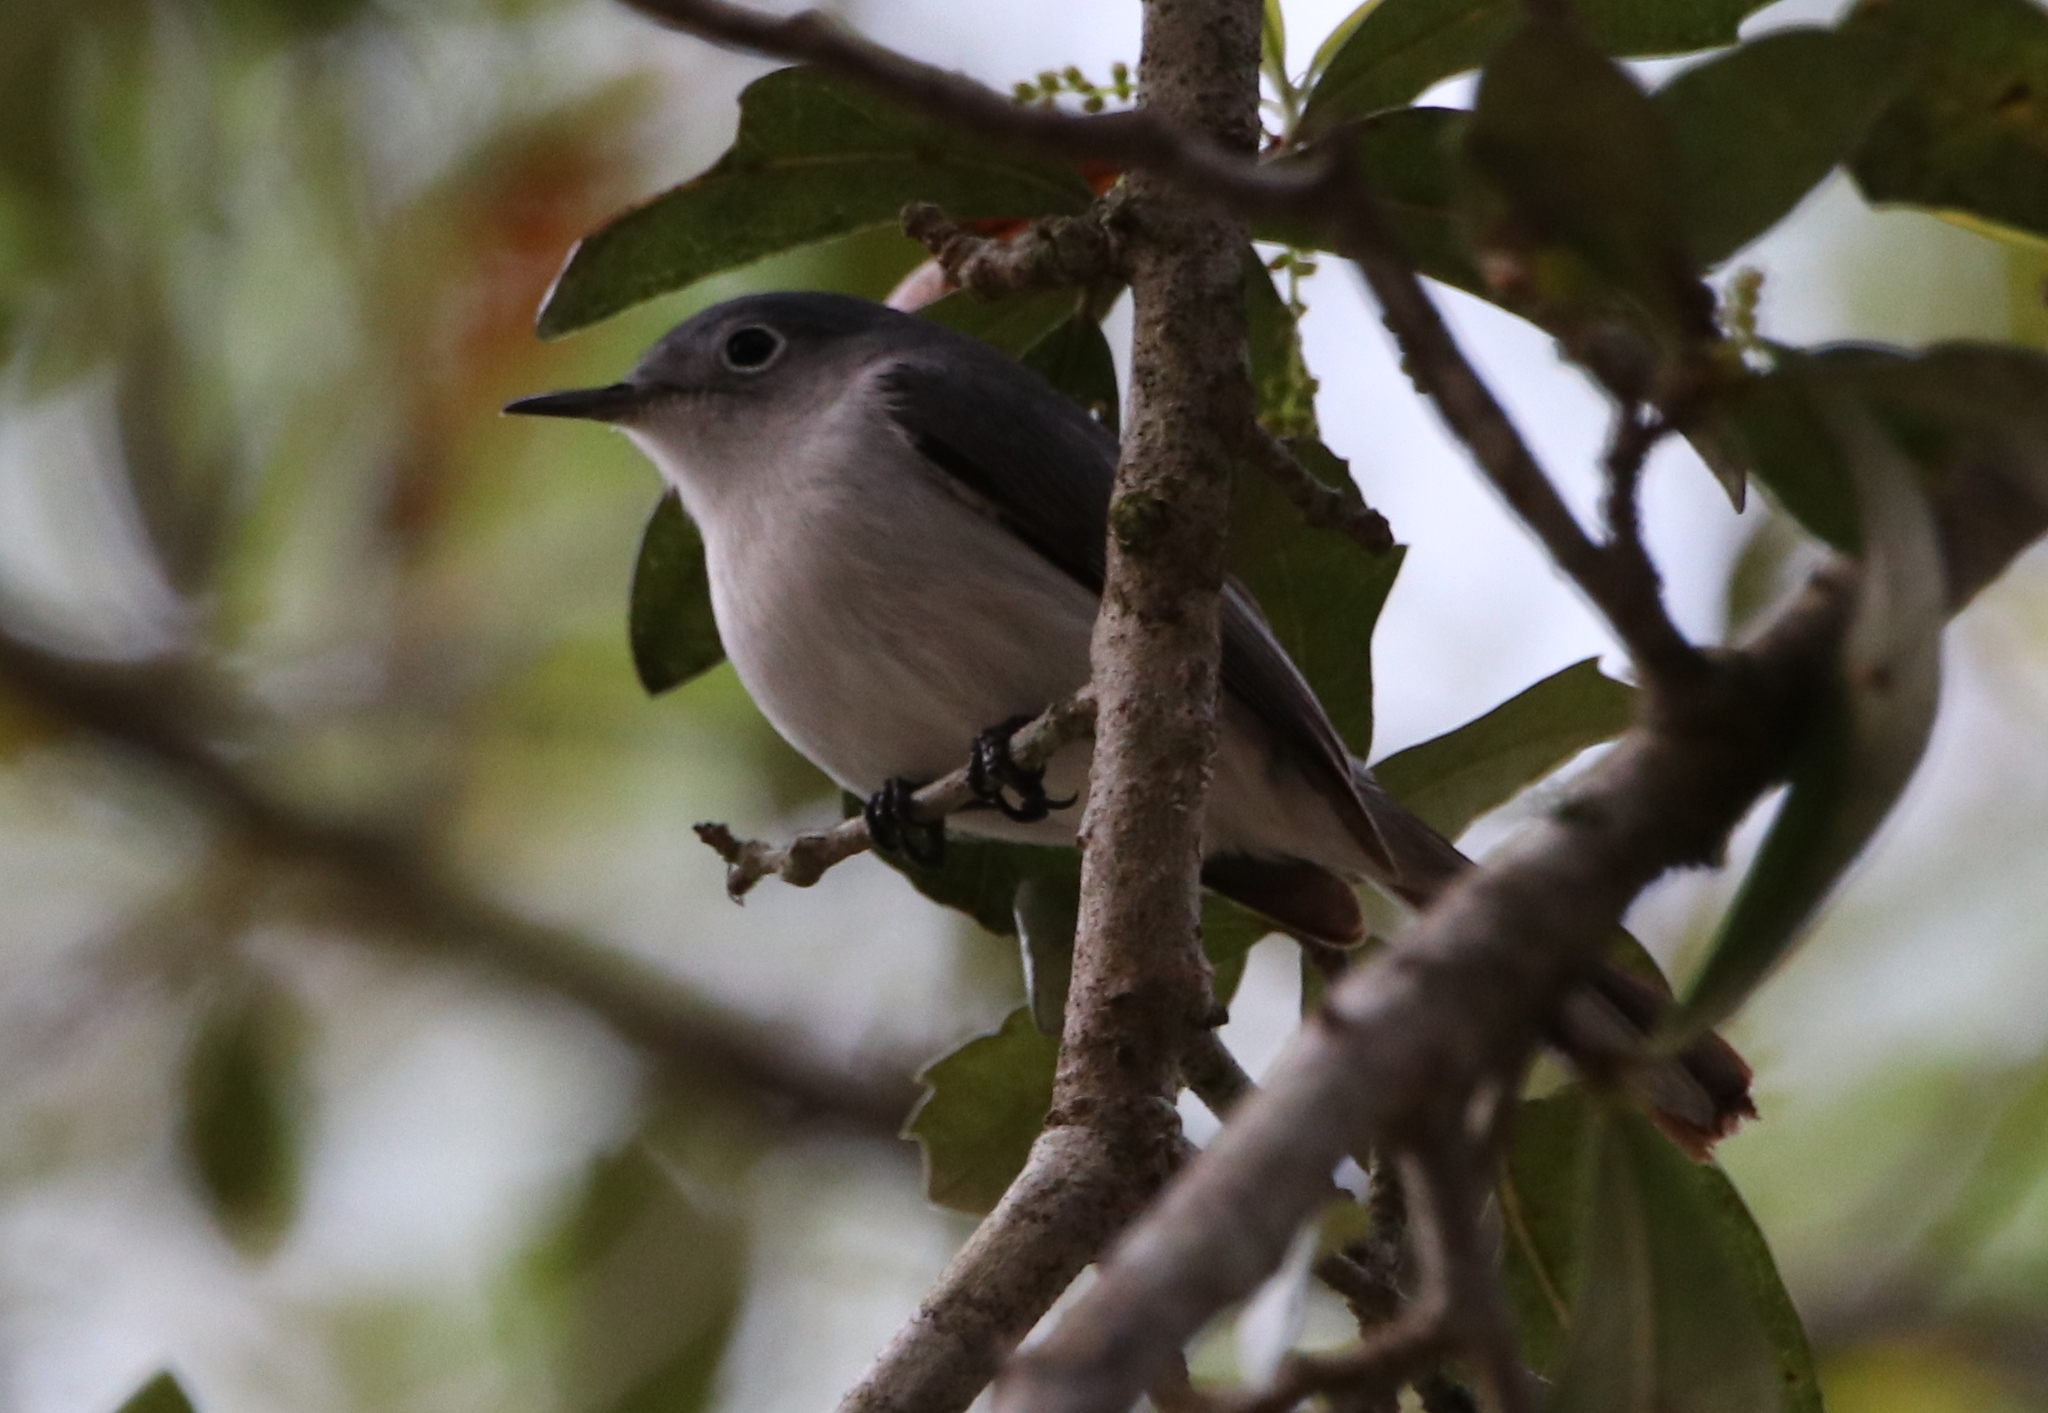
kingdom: Animalia
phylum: Chordata
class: Aves
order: Passeriformes
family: Polioptilidae
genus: Polioptila
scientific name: Polioptila caerulea
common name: Blue-gray gnatcatcher
